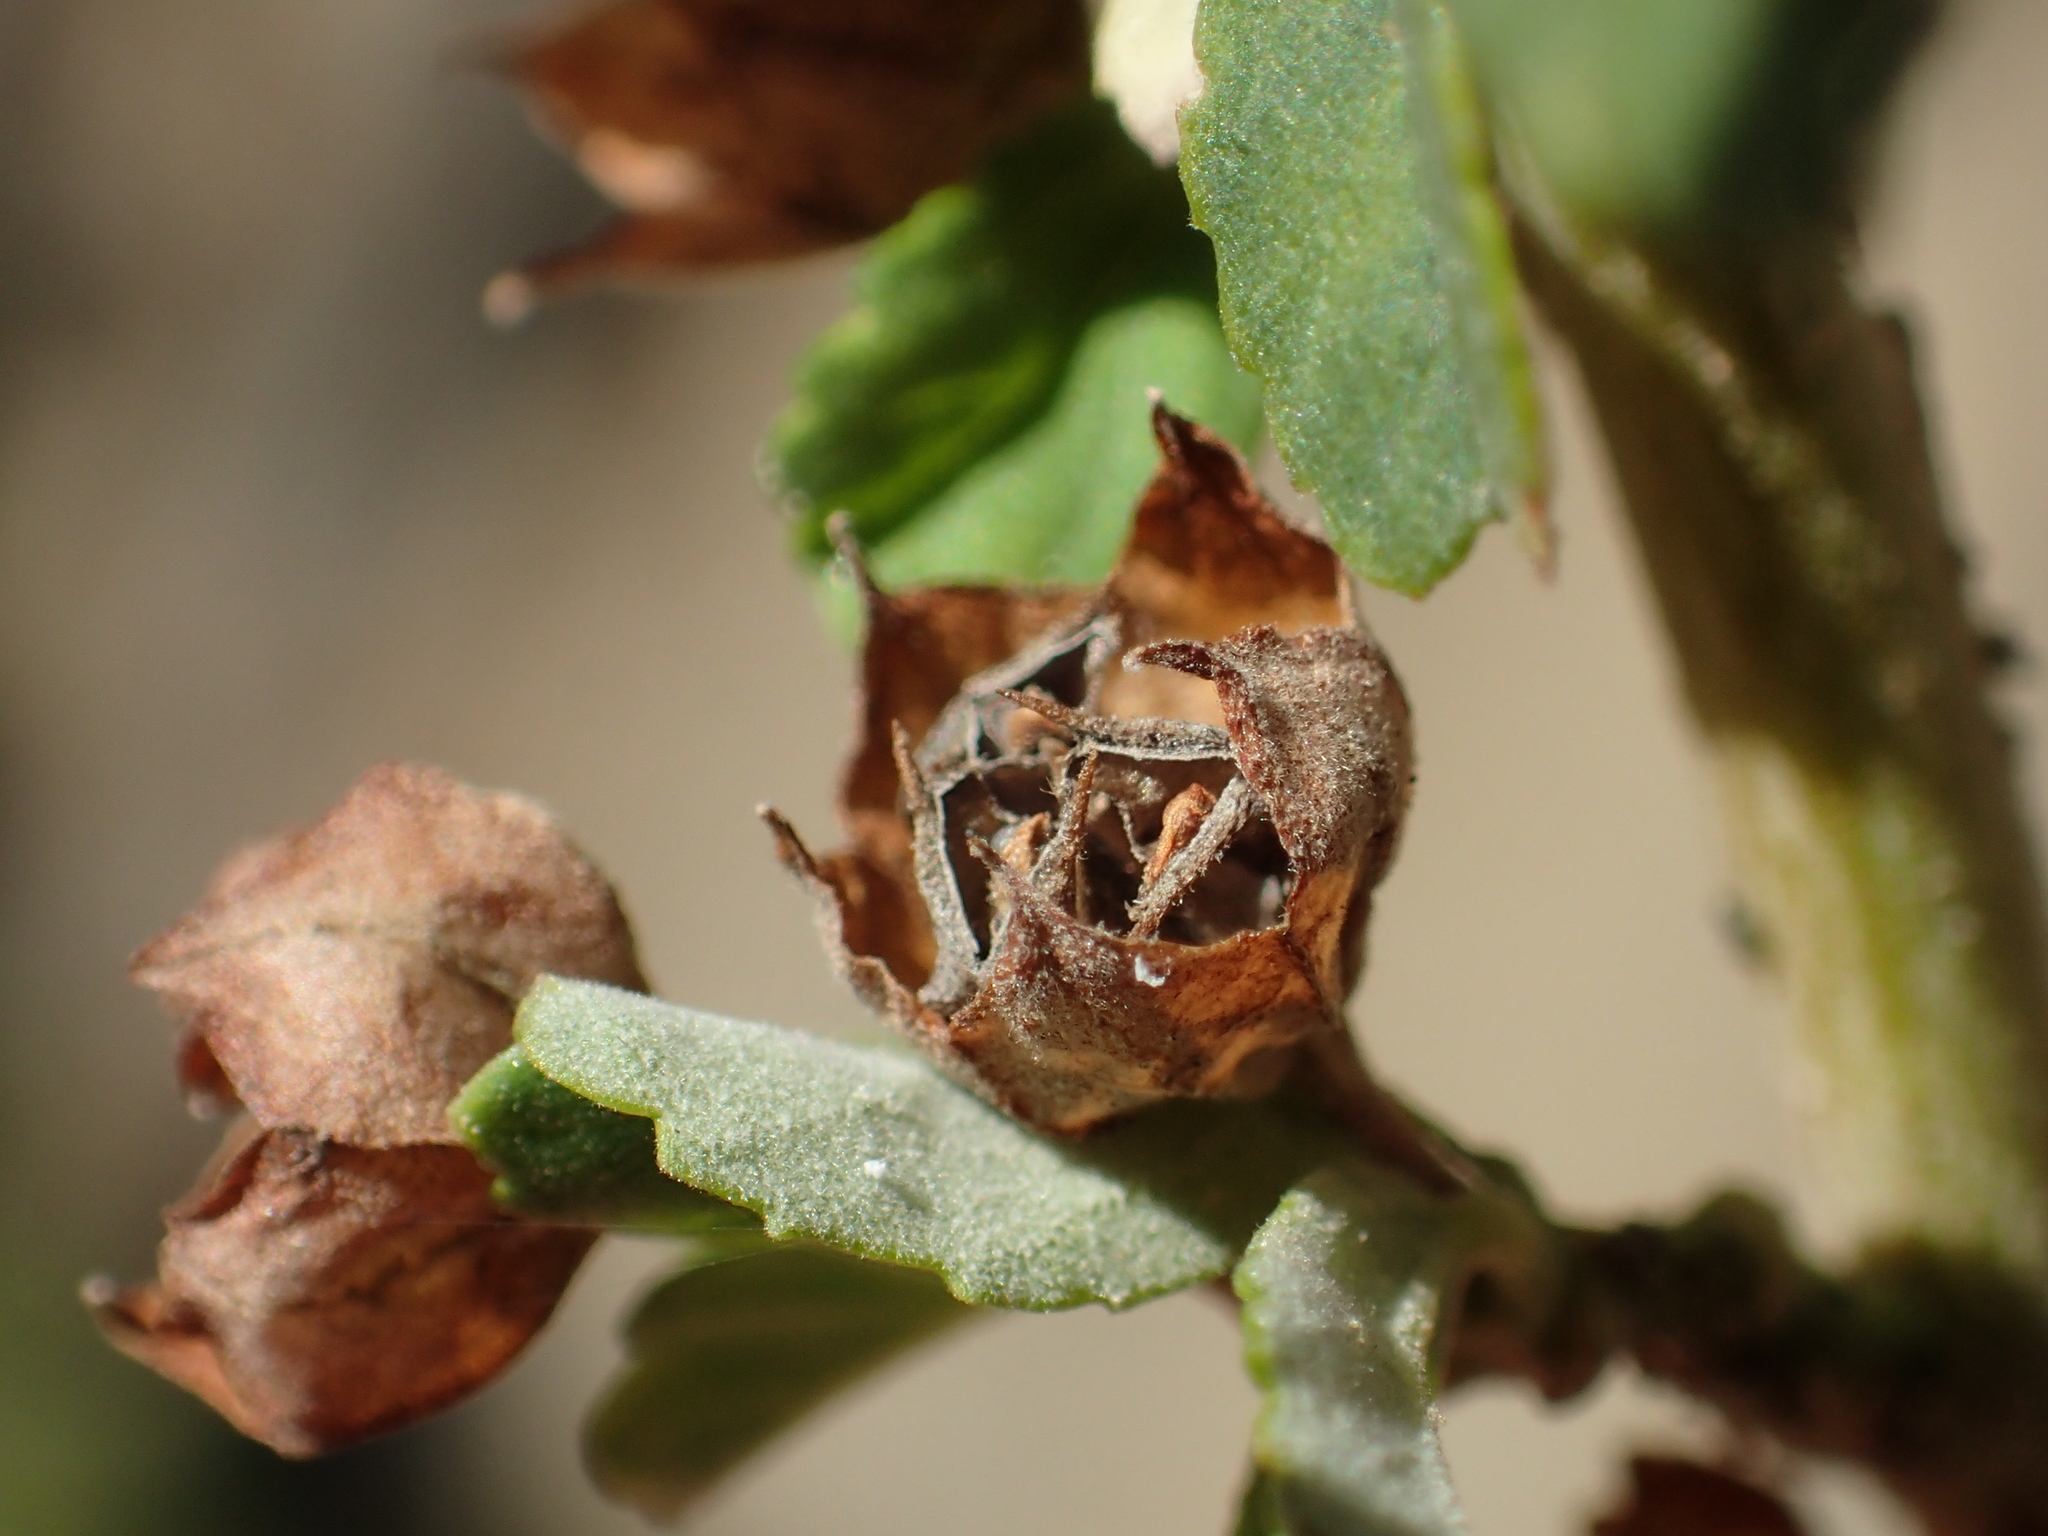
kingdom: Plantae
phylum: Tracheophyta
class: Magnoliopsida
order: Malvales
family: Malvaceae
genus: Sida
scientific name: Sida rhombifolia
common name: Queensland-hemp
